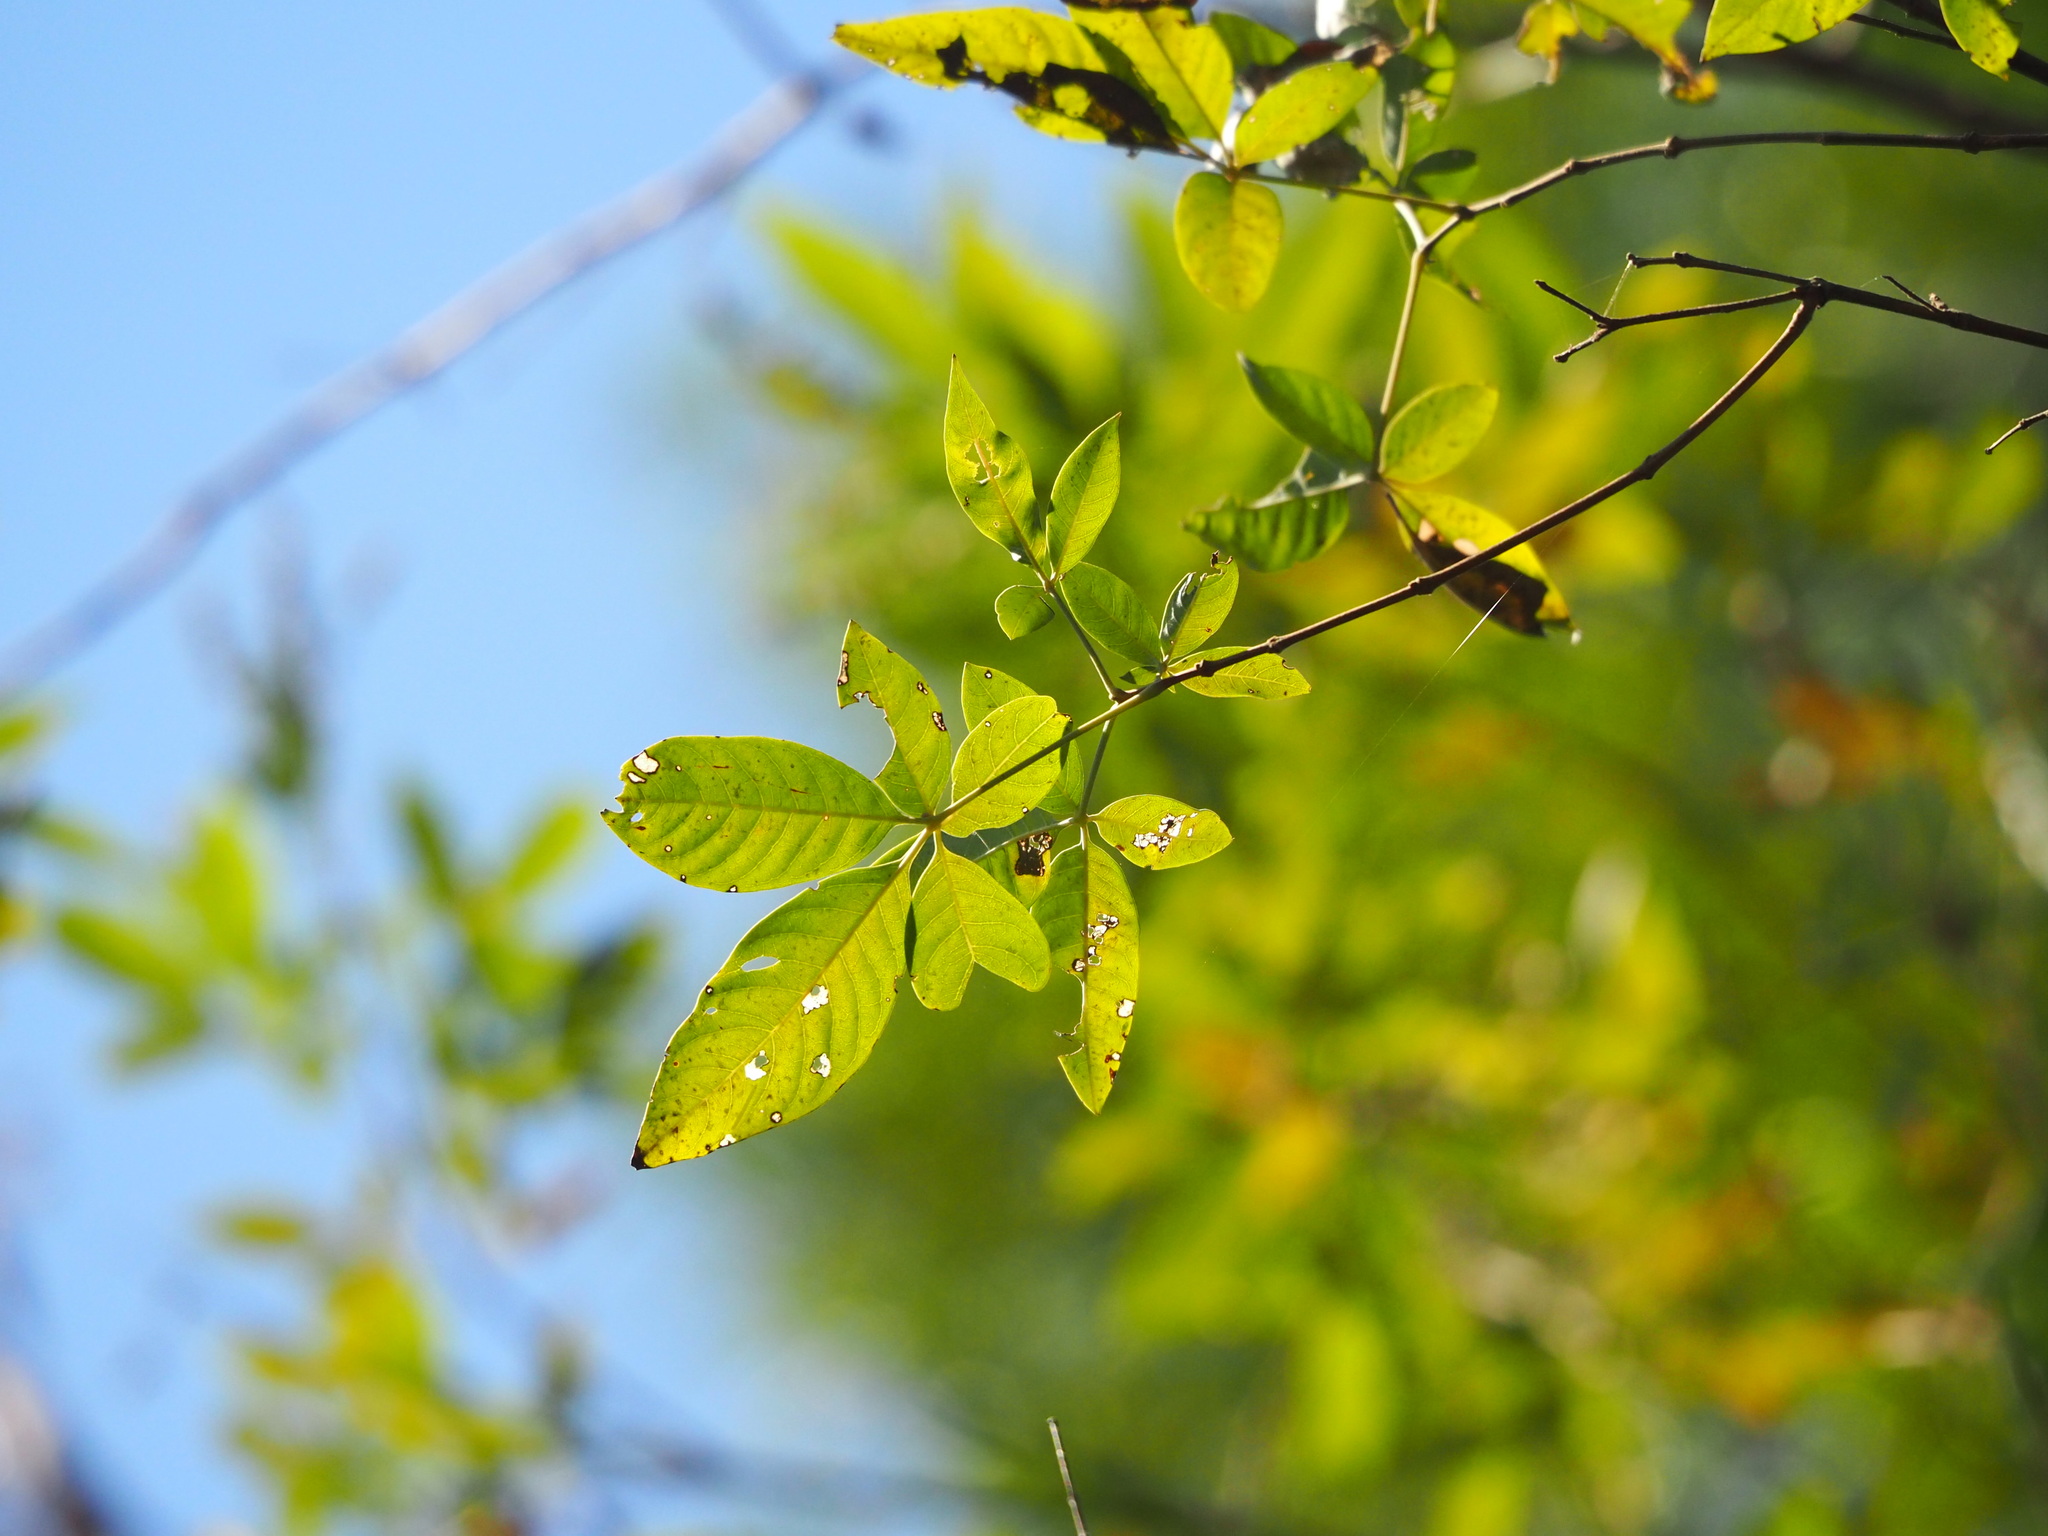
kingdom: Plantae
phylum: Tracheophyta
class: Magnoliopsida
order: Lamiales
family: Lamiaceae
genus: Vitex
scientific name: Vitex negundo
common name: Chinese chastetree
